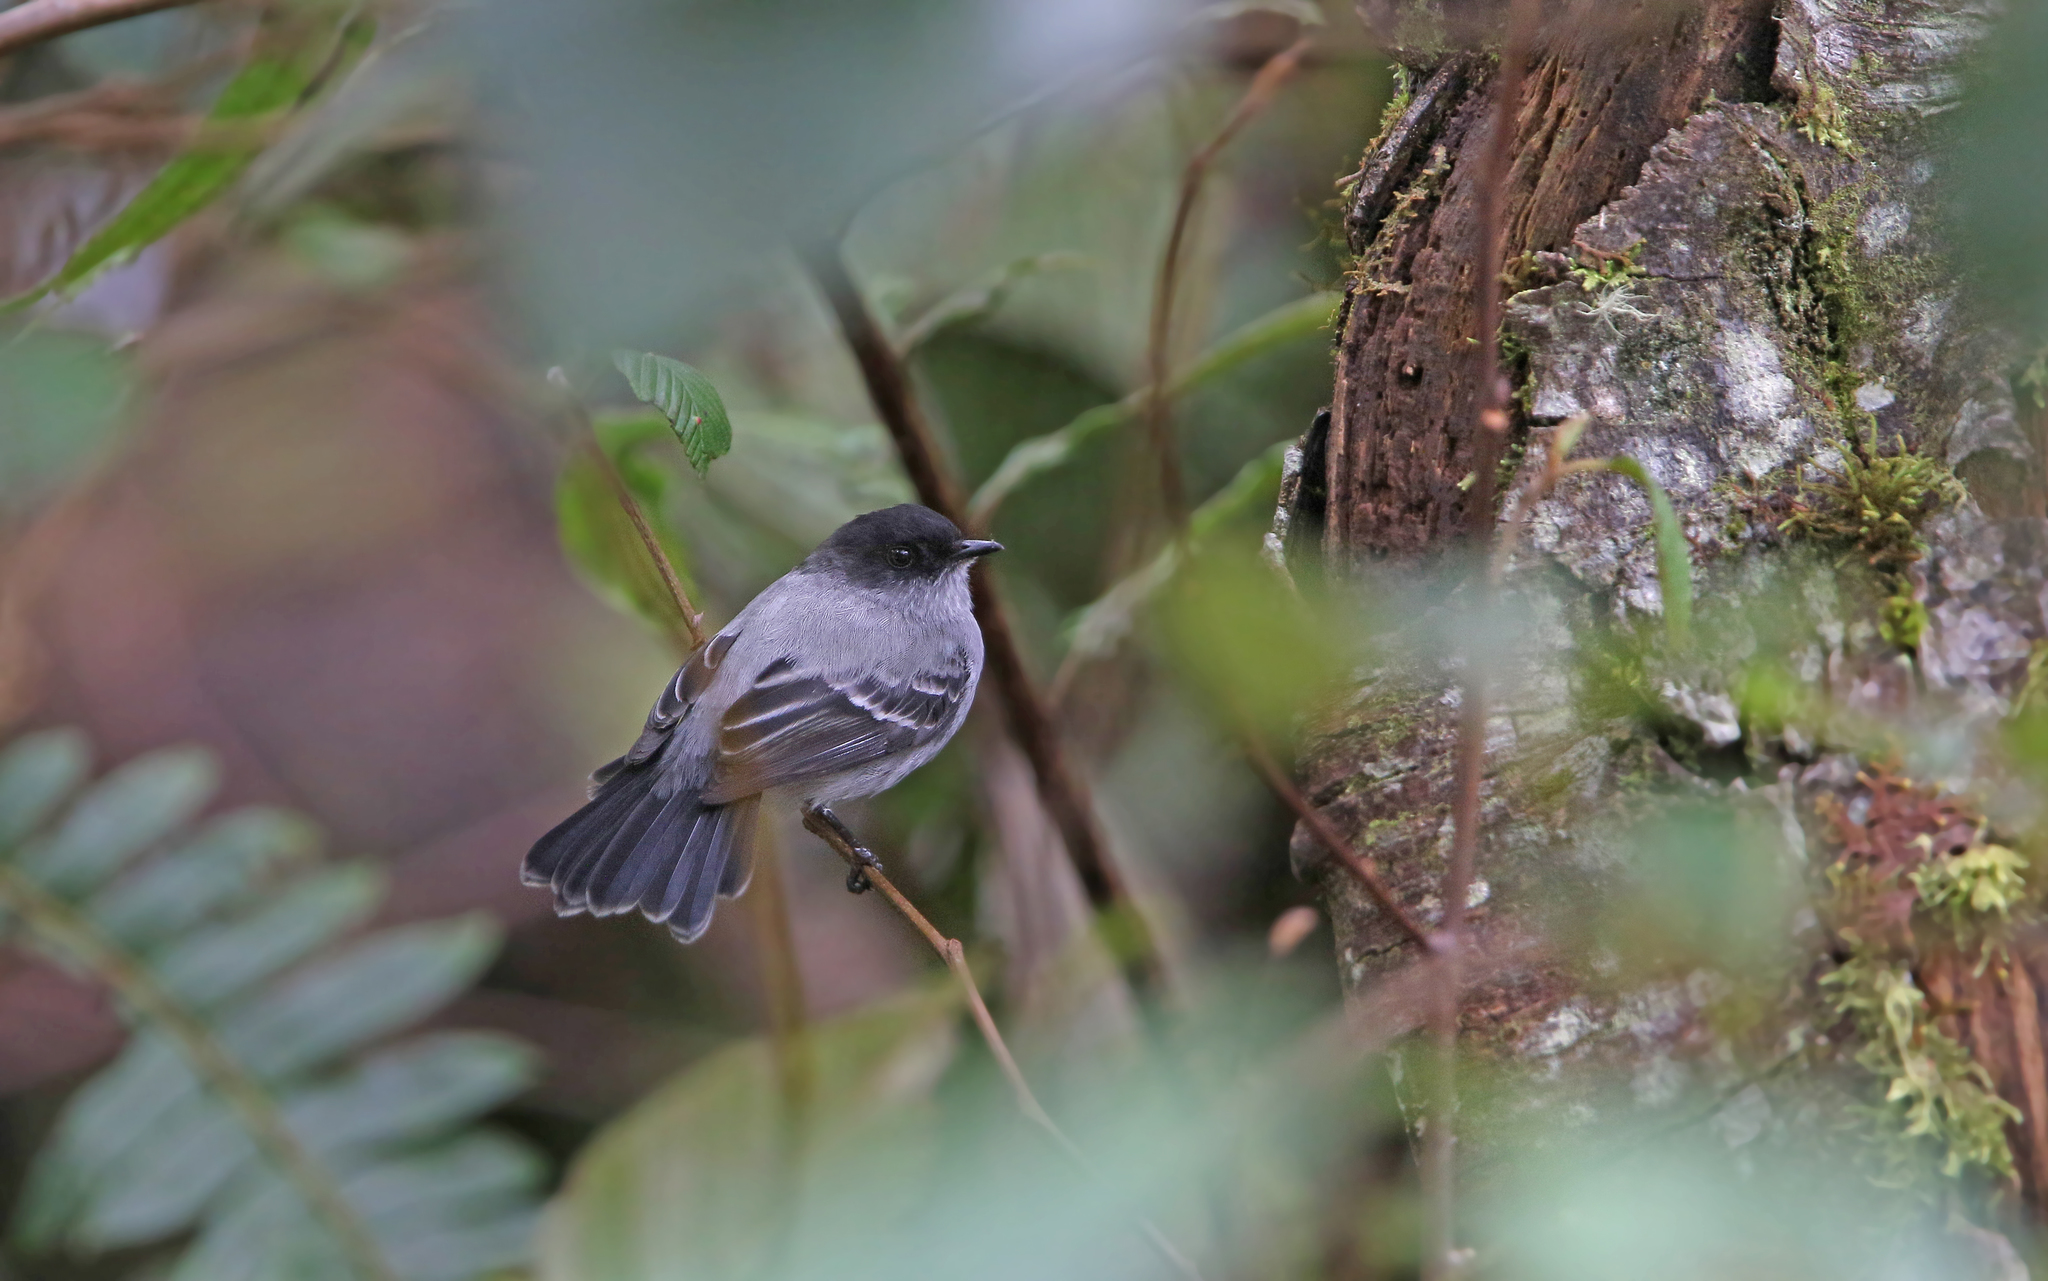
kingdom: Animalia
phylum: Chordata
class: Aves
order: Passeriformes
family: Tyrannidae
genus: Serpophaga
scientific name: Serpophaga cinerea
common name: Torrent tyrannulet
